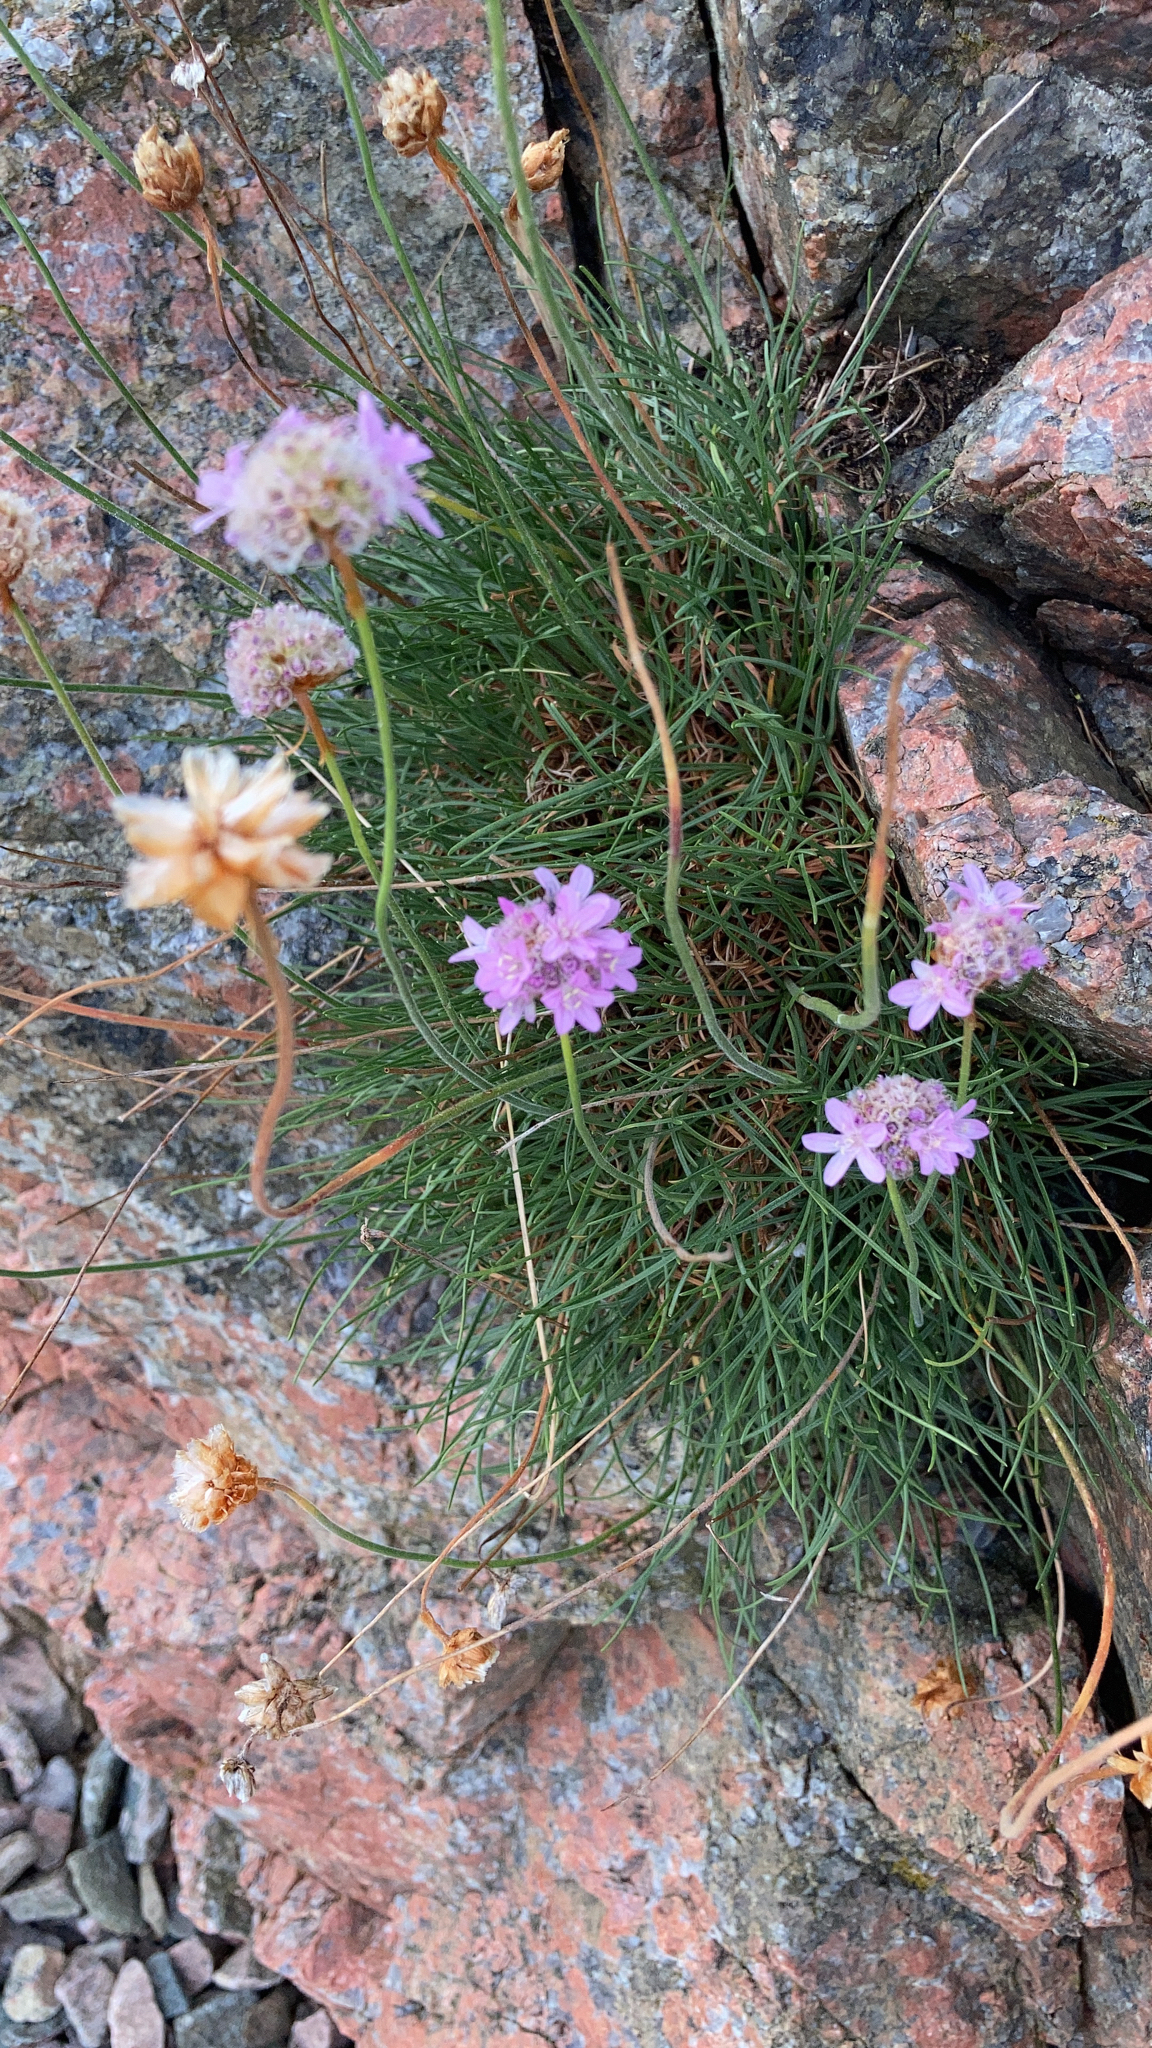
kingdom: Plantae
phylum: Tracheophyta
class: Magnoliopsida
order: Caryophyllales
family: Plumbaginaceae
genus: Armeria
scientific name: Armeria maritima
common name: Thrift
